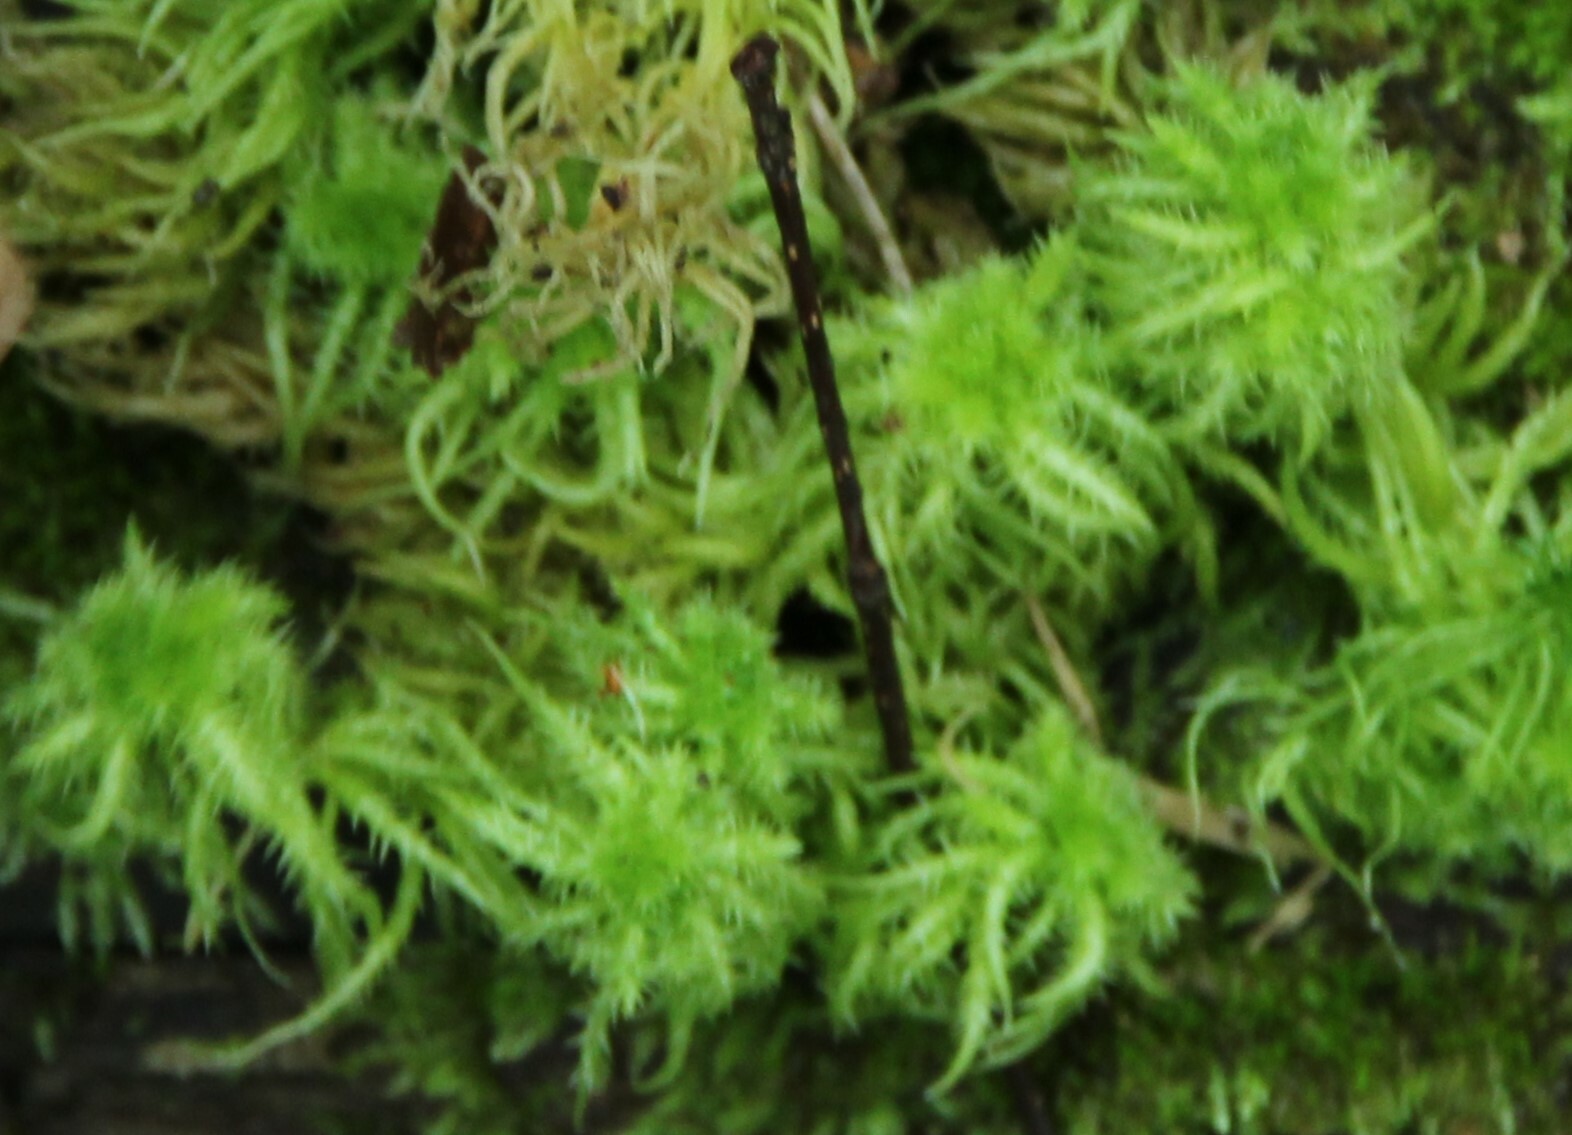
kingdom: Plantae
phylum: Bryophyta
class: Sphagnopsida
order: Sphagnales
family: Sphagnaceae
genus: Sphagnum
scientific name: Sphagnum squarrosum
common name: Shaggy peat moss
